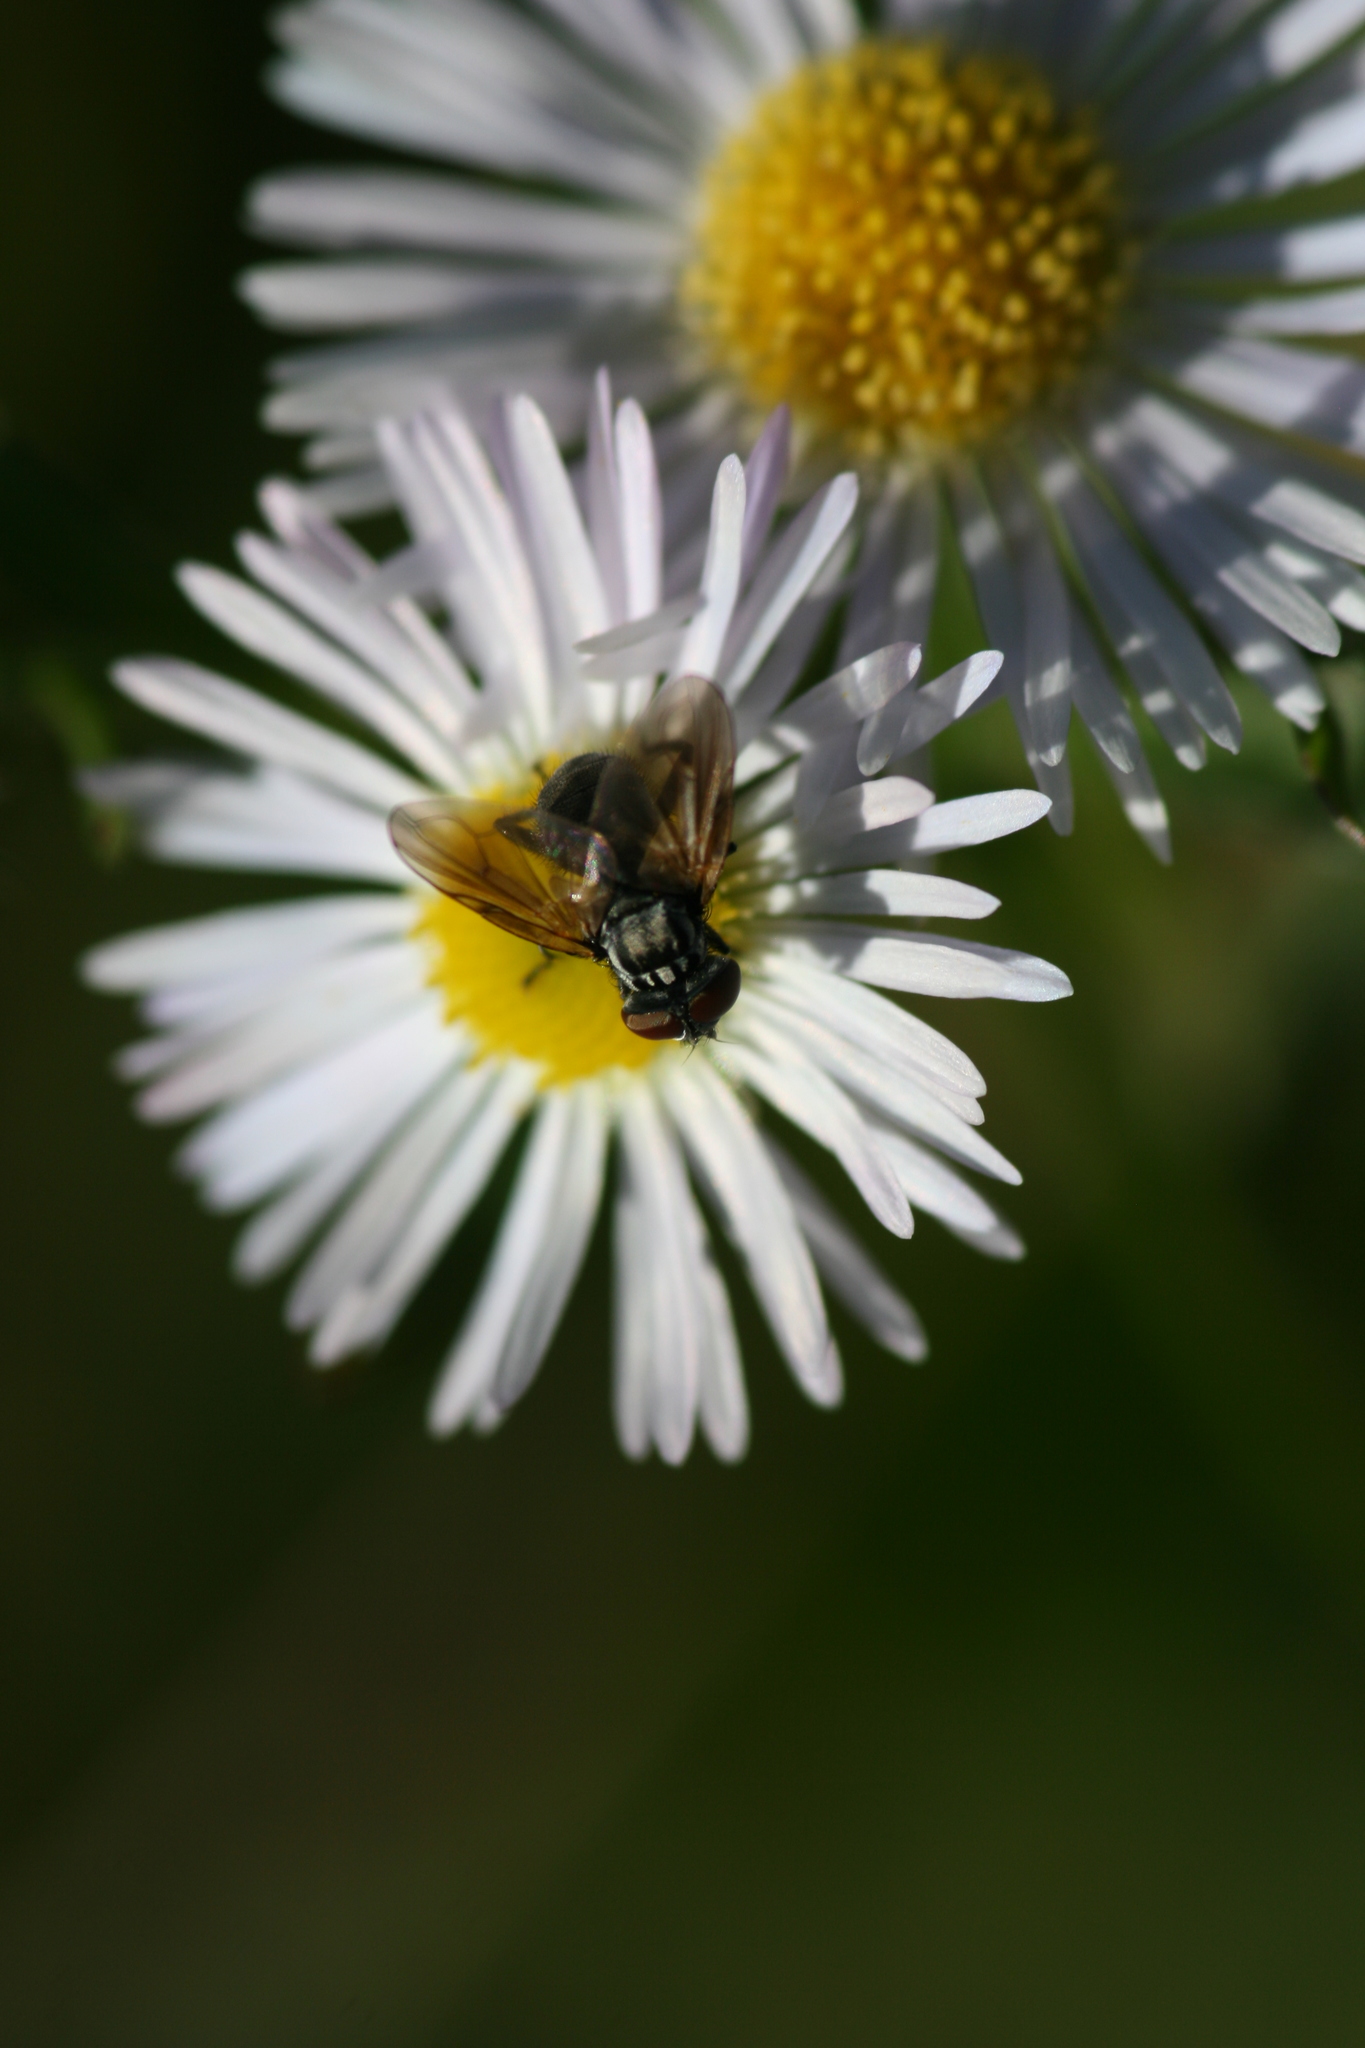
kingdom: Animalia
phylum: Arthropoda
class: Insecta
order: Diptera
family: Tachinidae
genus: Phasia
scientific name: Phasia obesa
